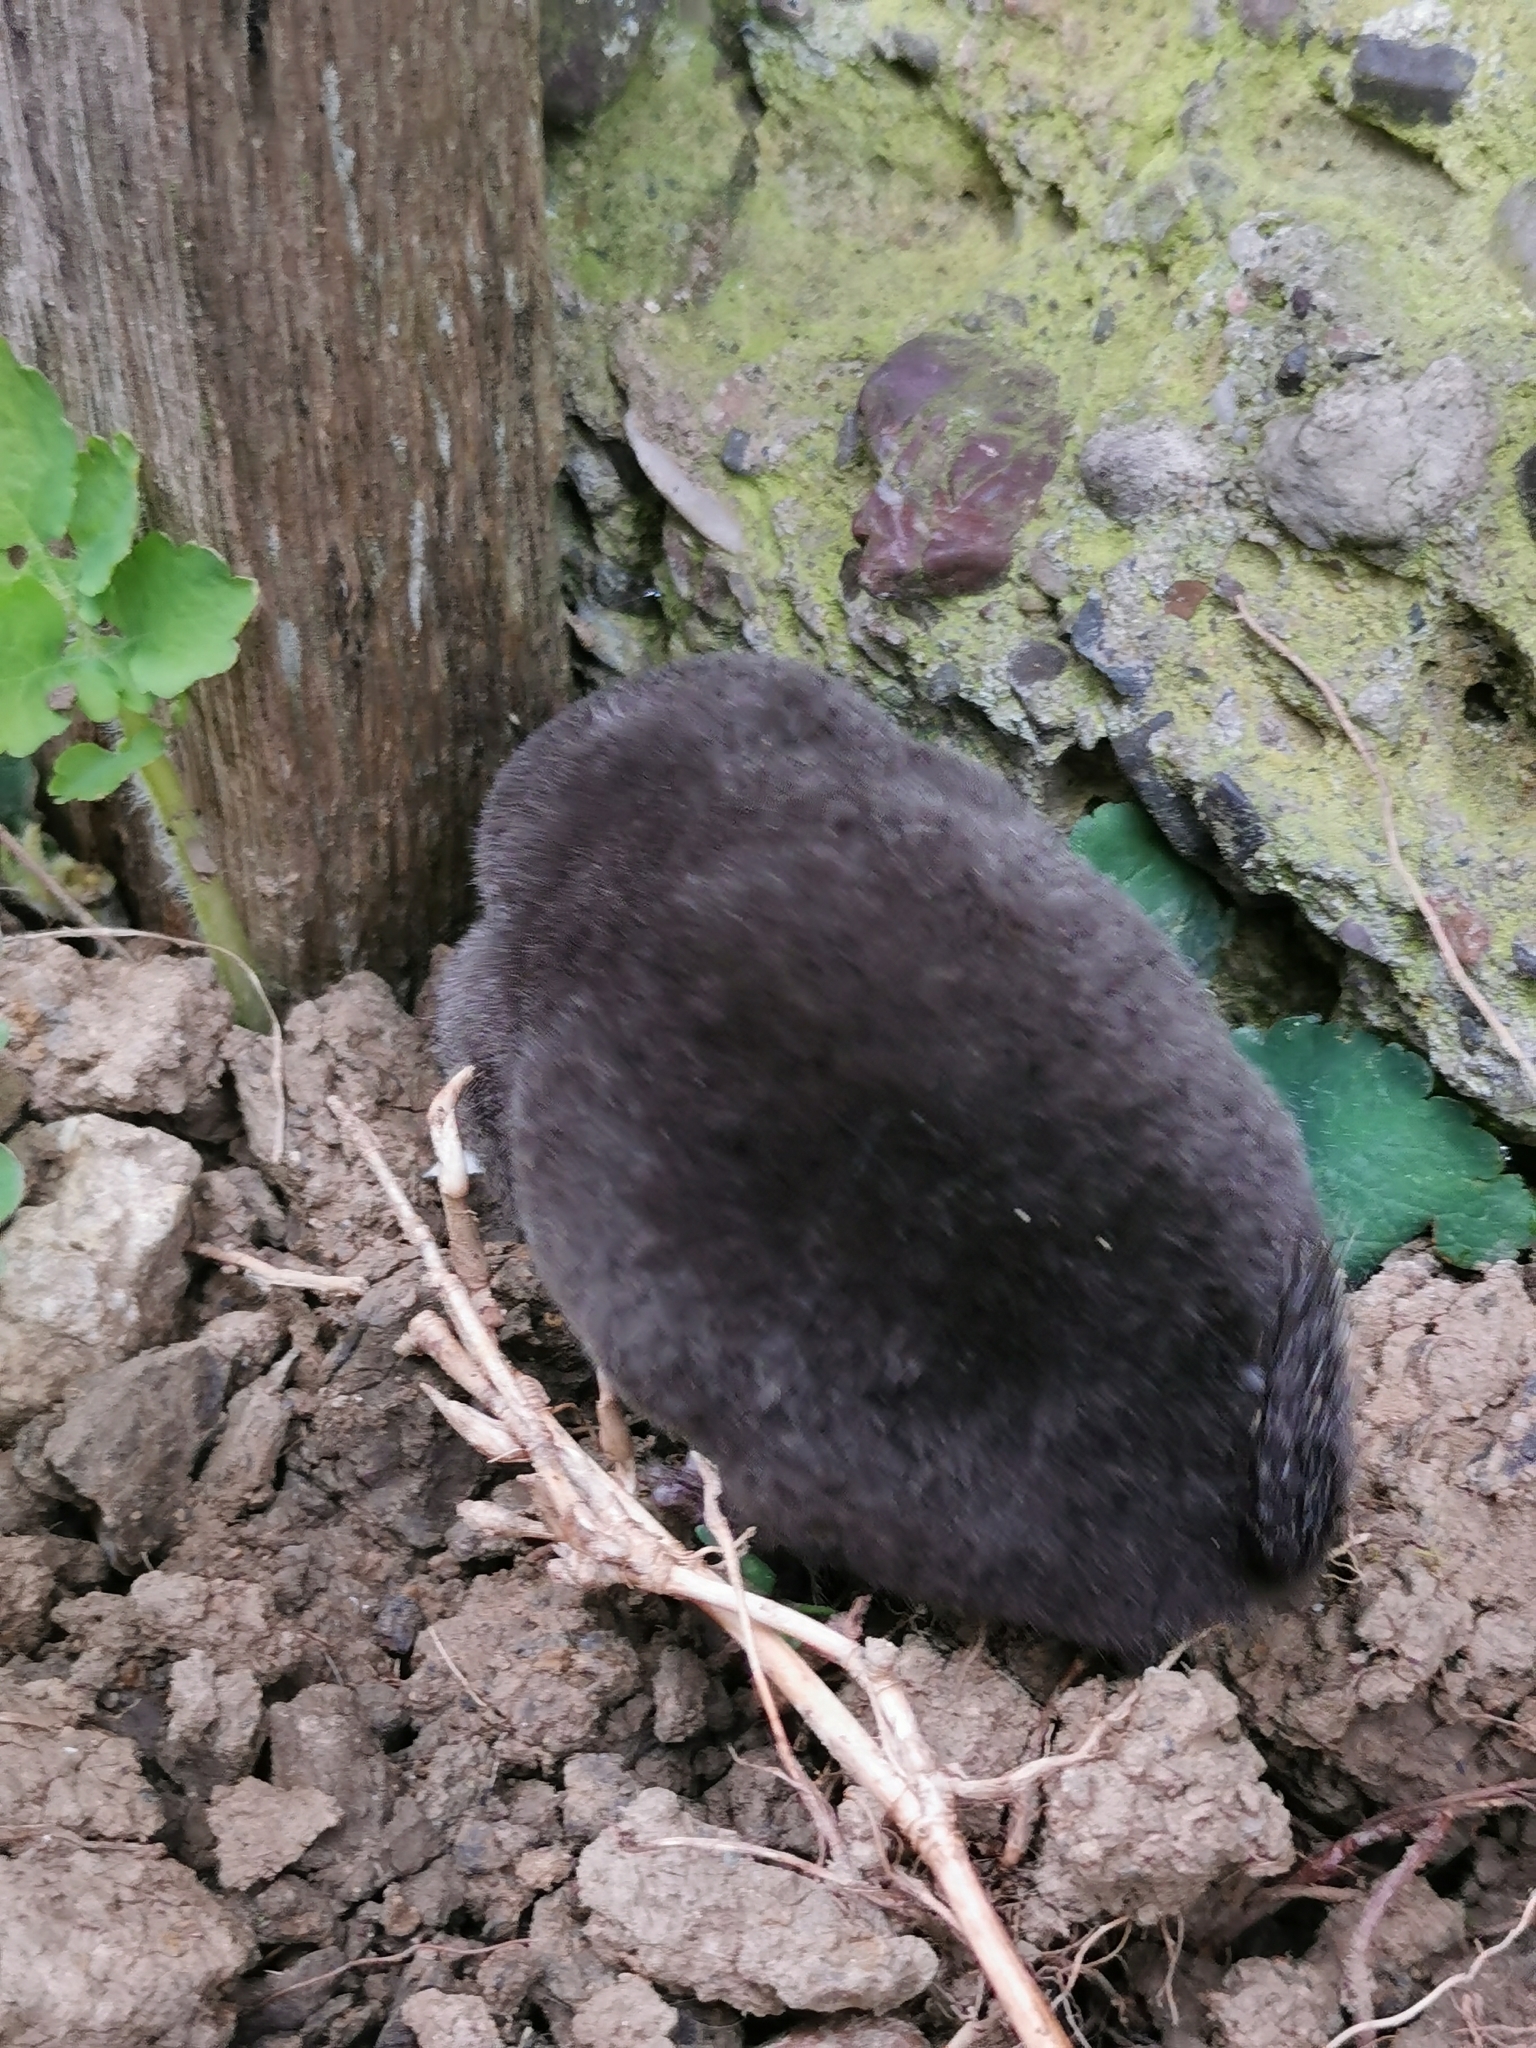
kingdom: Animalia
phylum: Chordata
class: Mammalia
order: Soricomorpha
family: Talpidae
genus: Talpa
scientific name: Talpa europaea
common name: European mole
